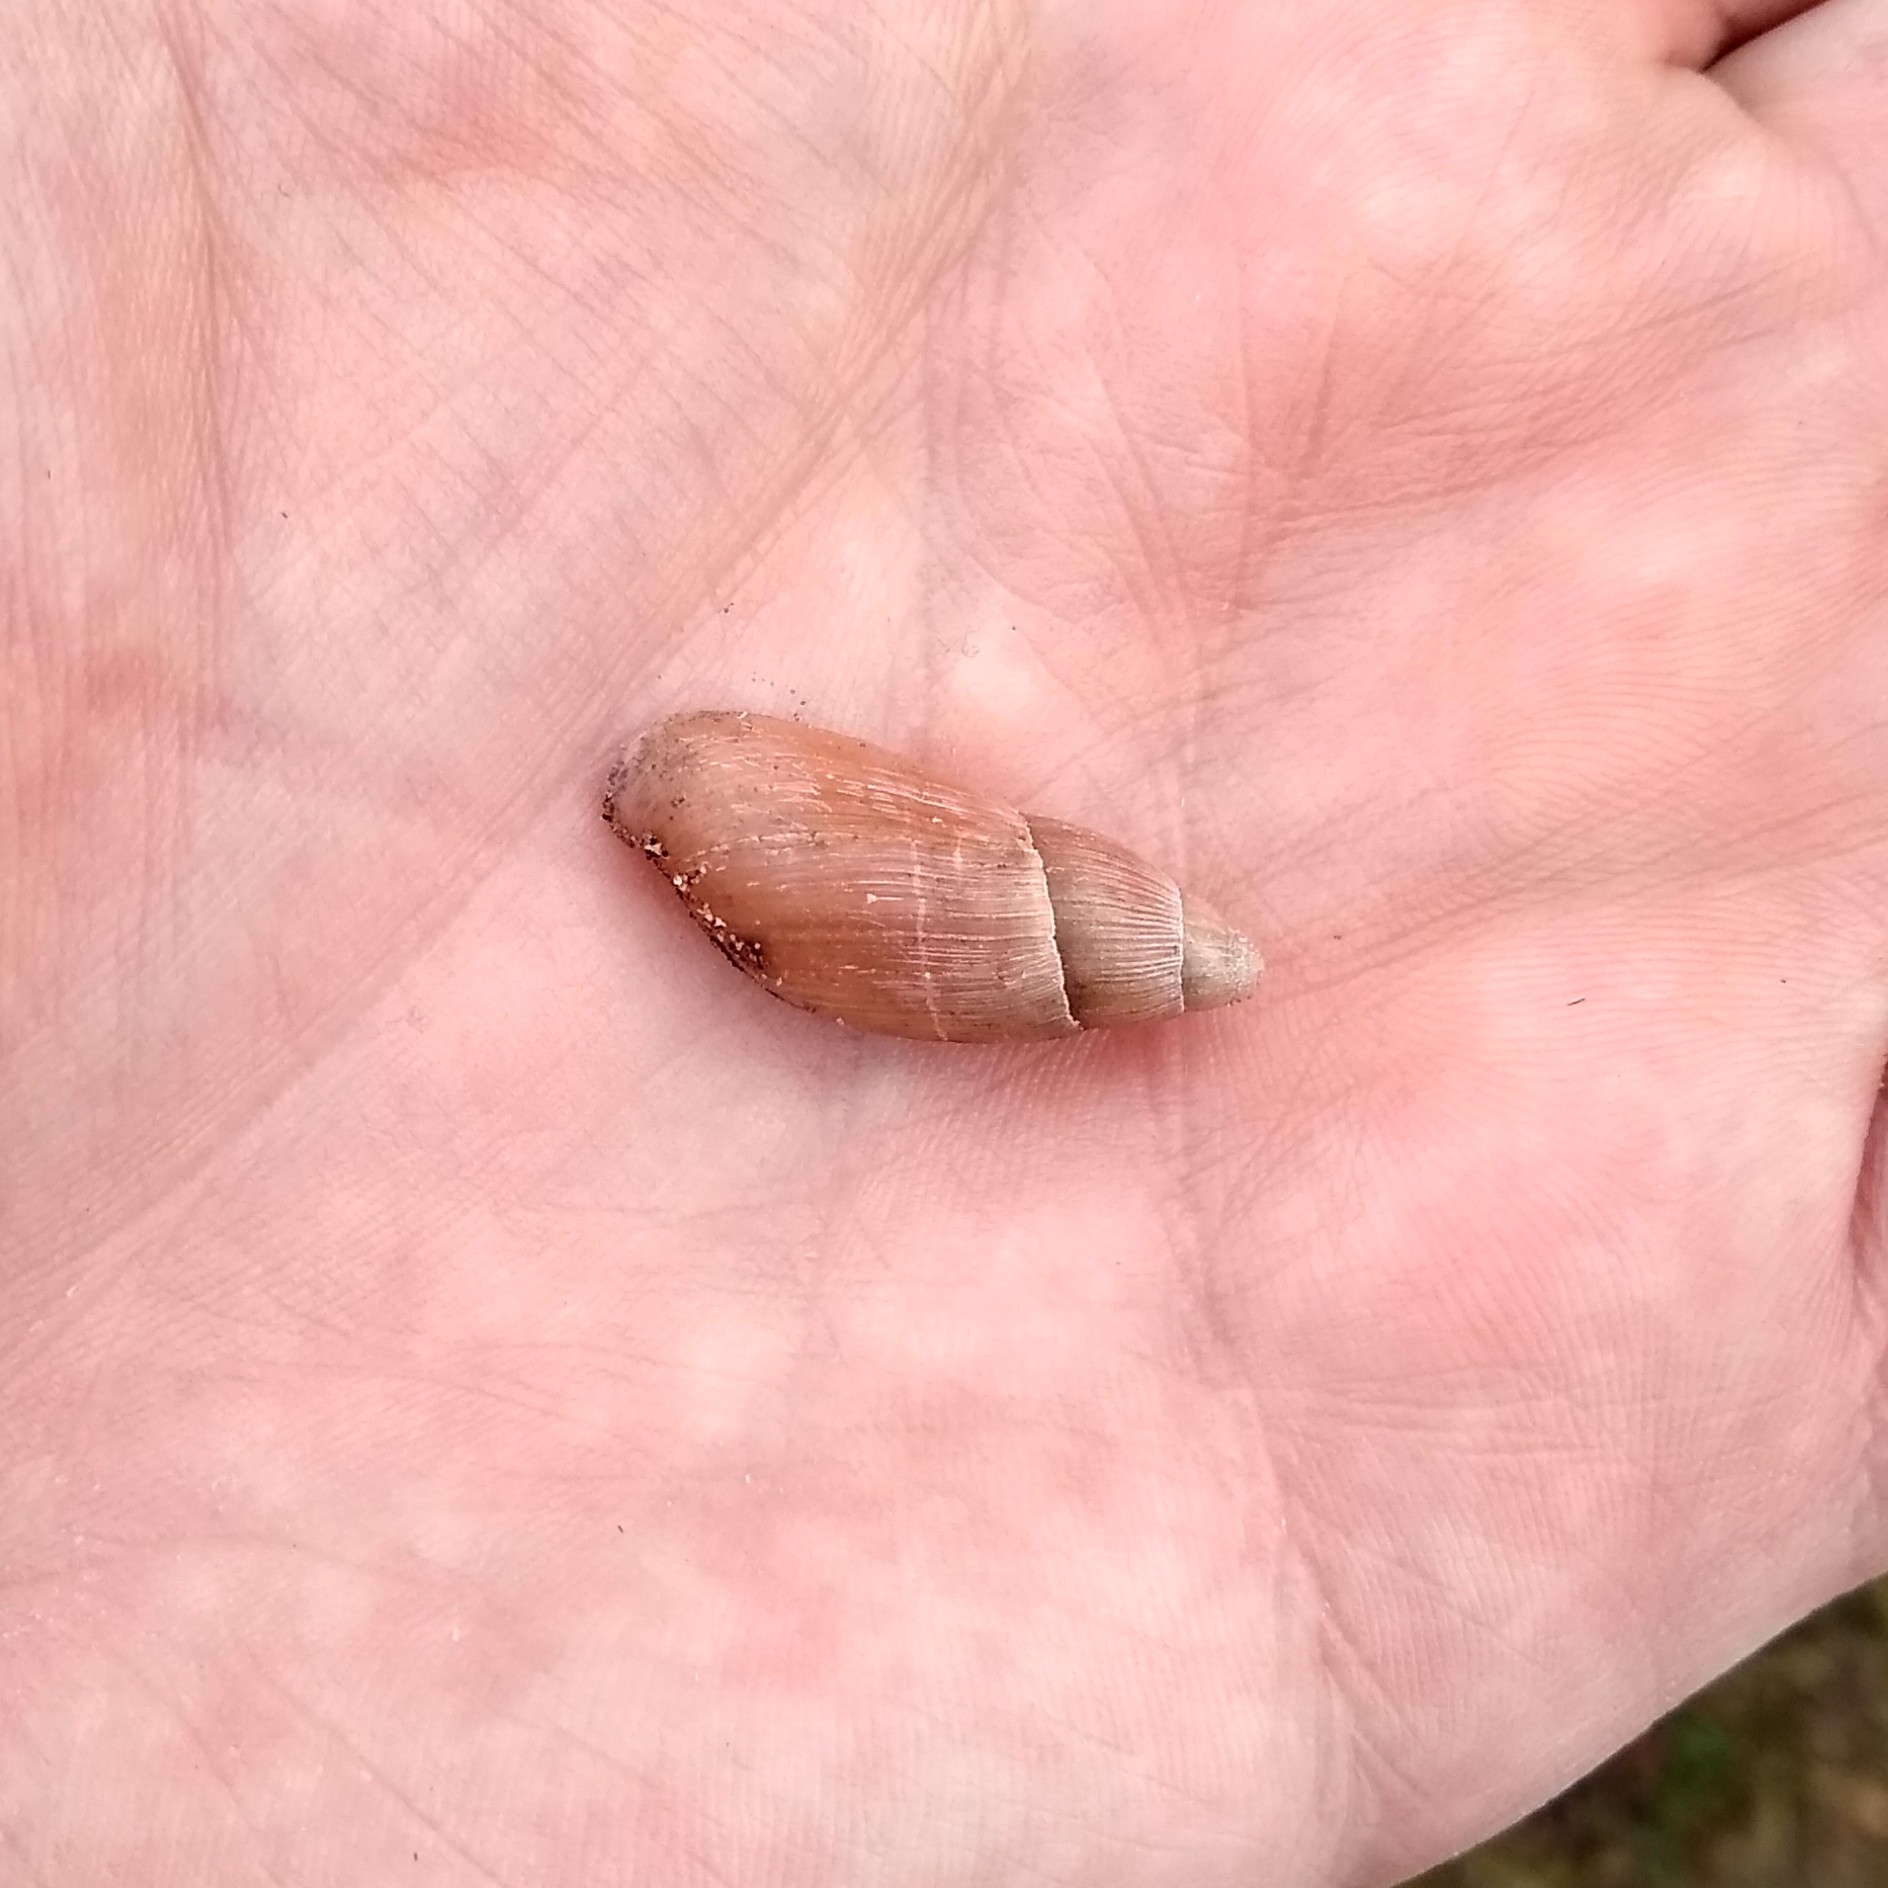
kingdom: Animalia
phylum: Mollusca
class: Gastropoda
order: Stylommatophora
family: Spiraxidae
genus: Euglandina
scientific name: Euglandina rosea
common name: Rosy wolfsnail
